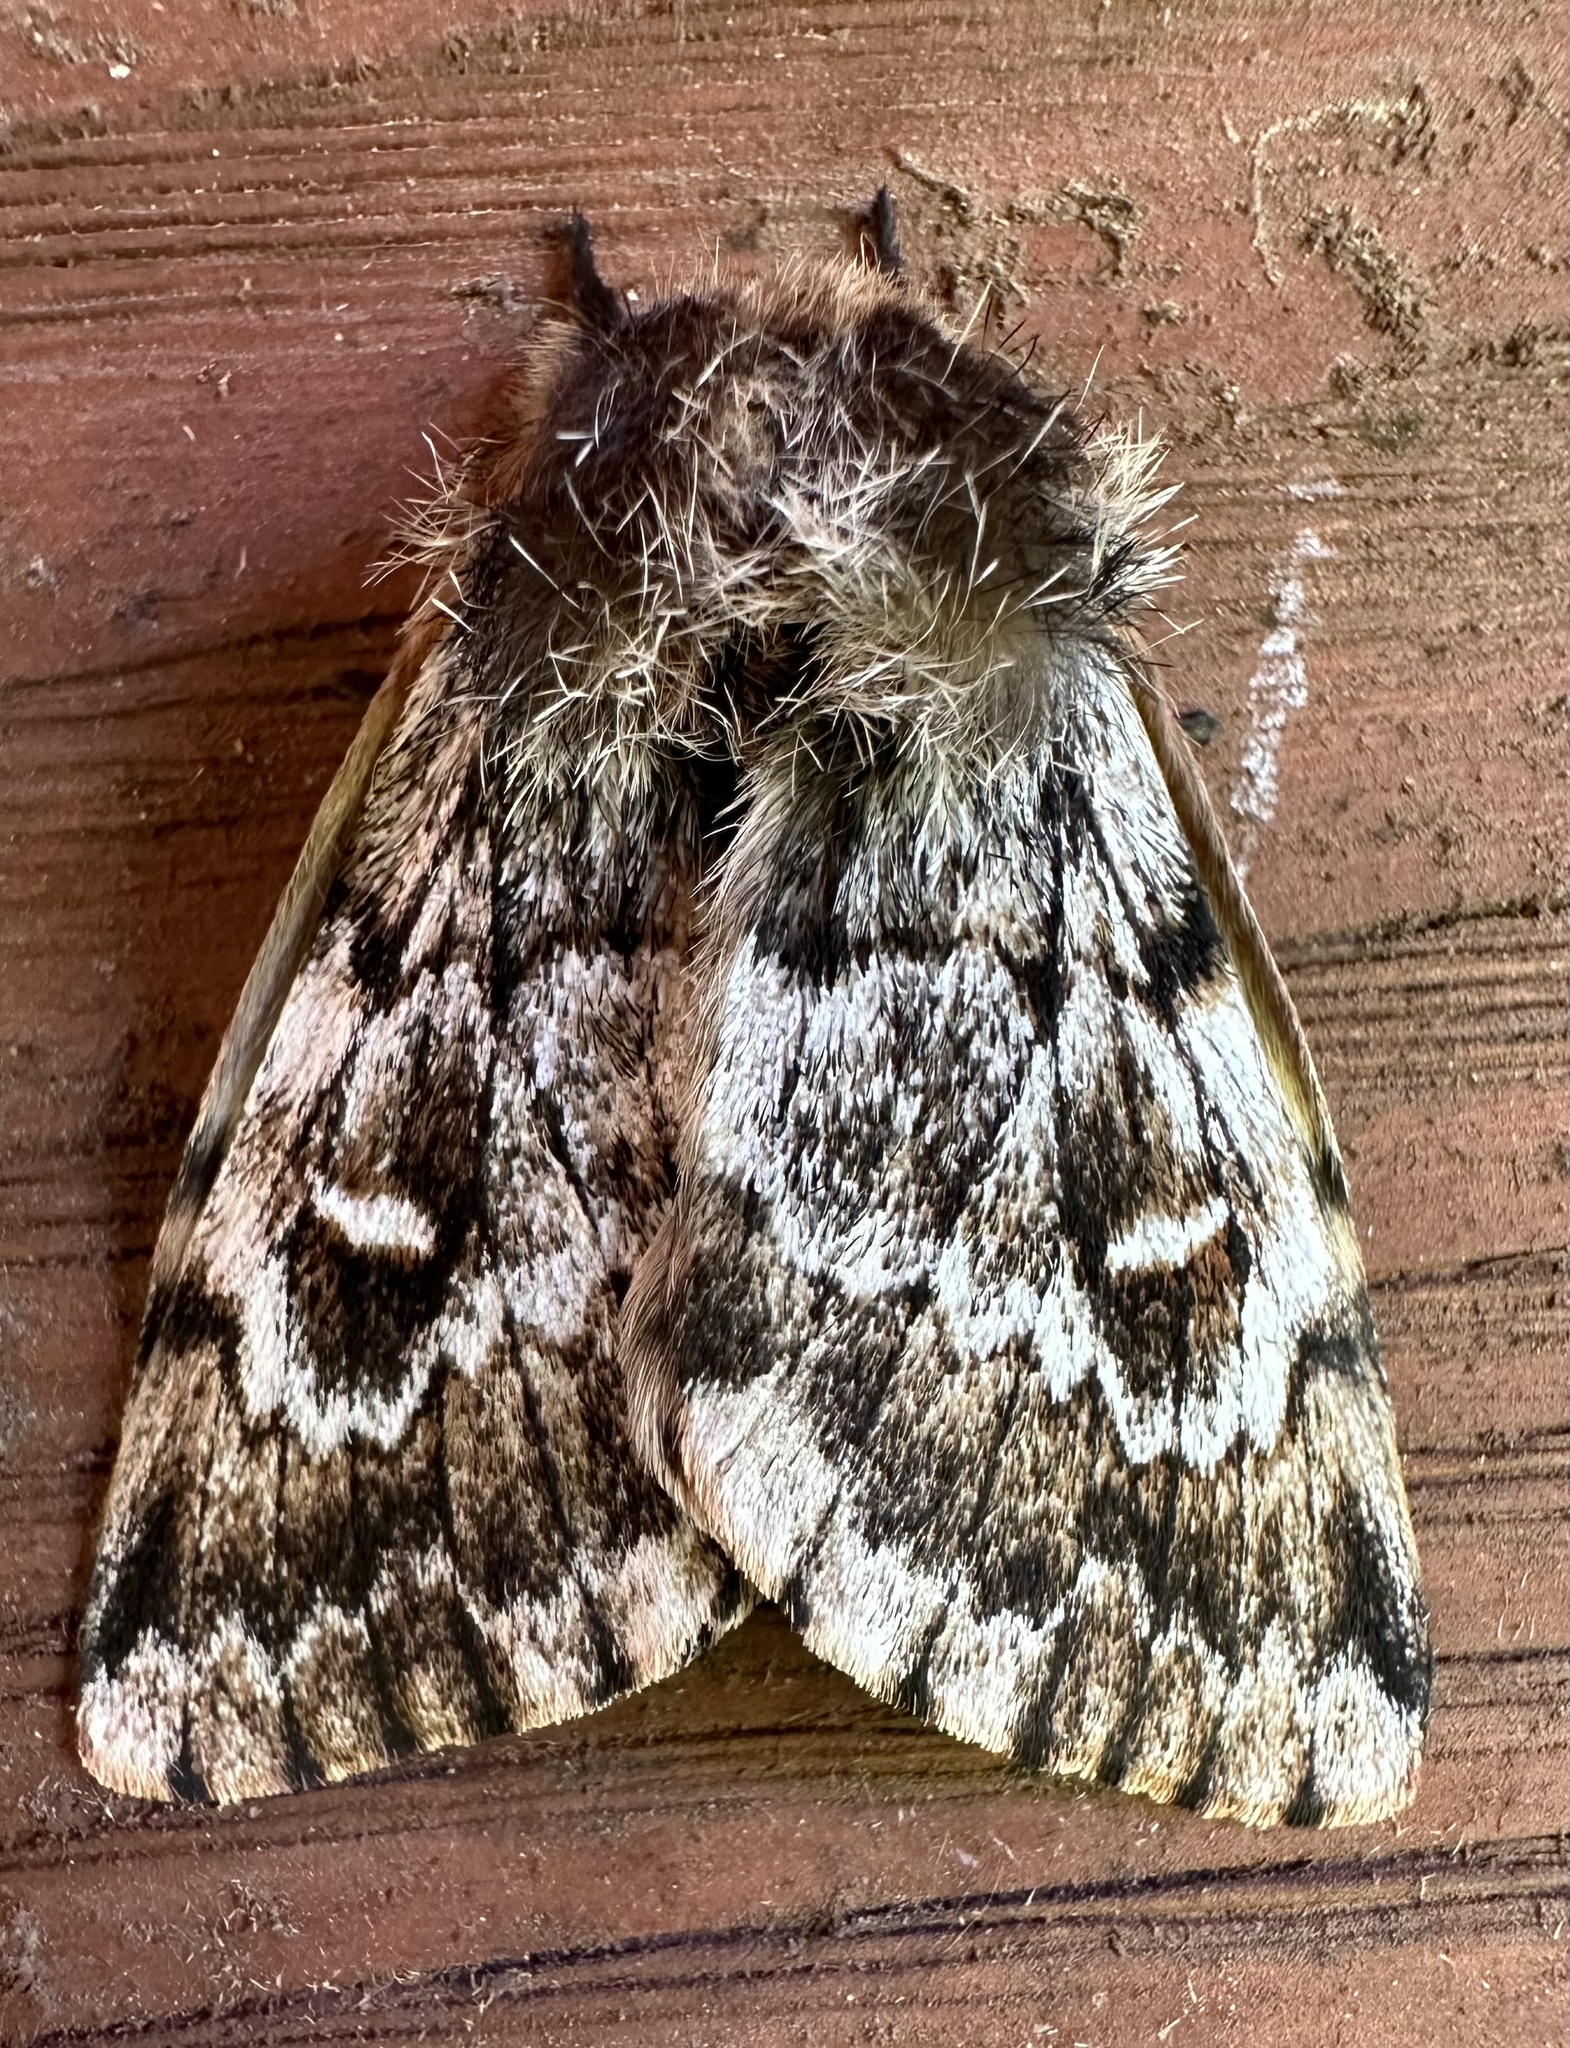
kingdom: Animalia
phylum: Arthropoda
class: Insecta
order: Lepidoptera
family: Saturniidae
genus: Ormiscodes
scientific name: Ormiscodes nigrosignata
